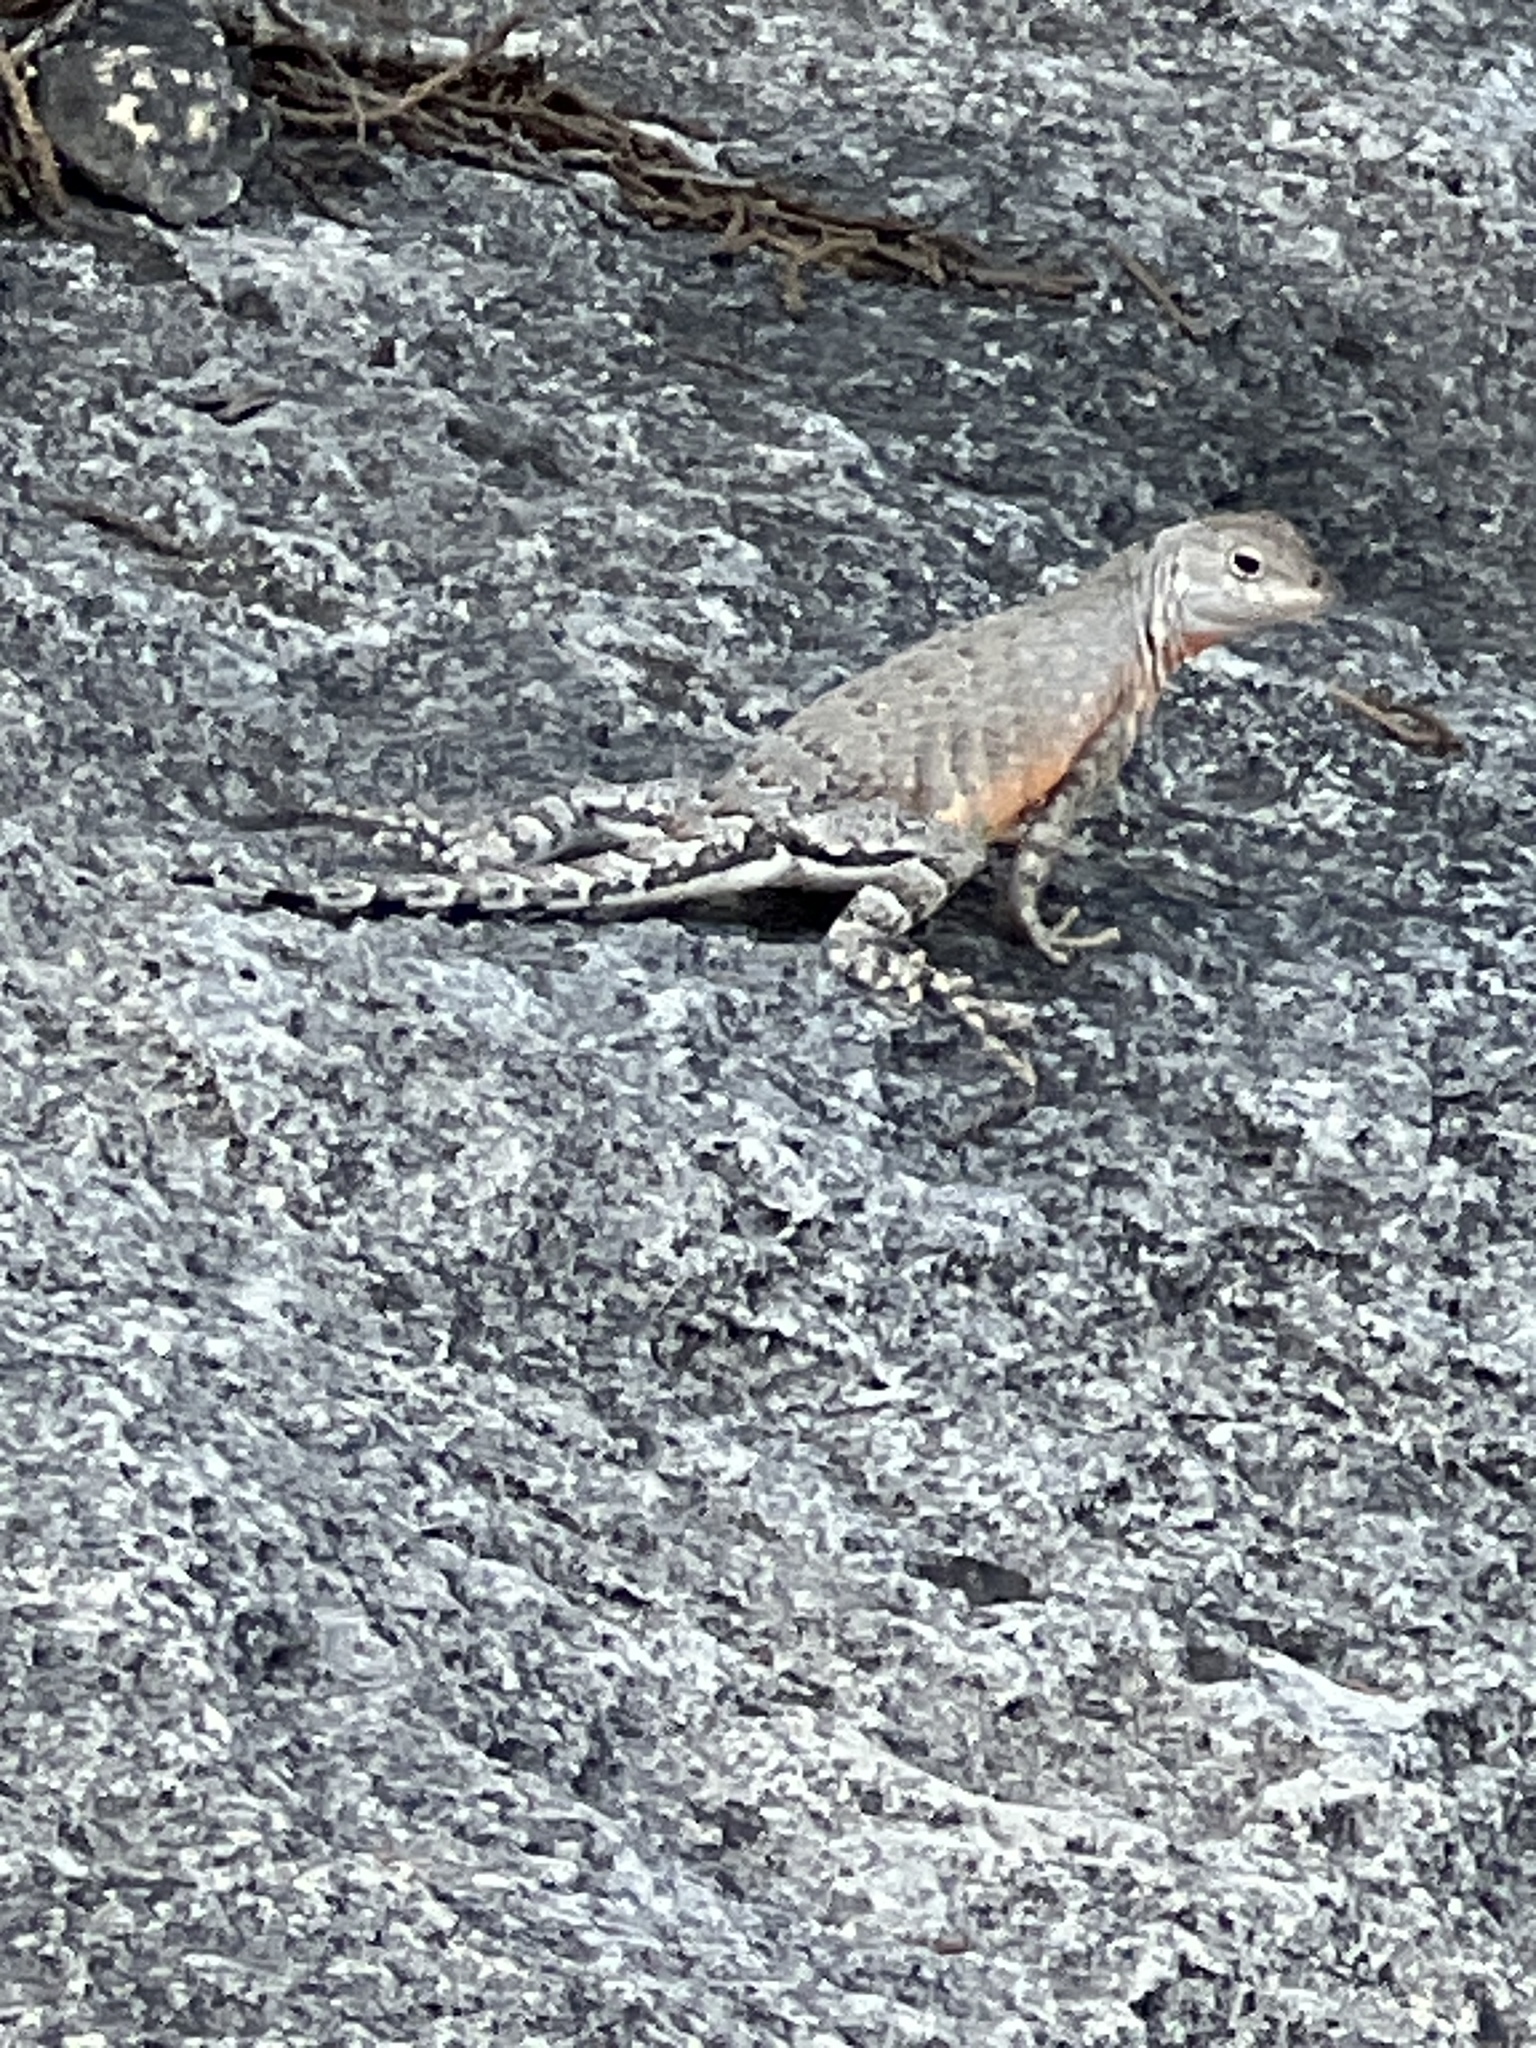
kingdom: Animalia
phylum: Chordata
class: Squamata
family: Phrynosomatidae
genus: Cophosaurus
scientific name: Cophosaurus texanus
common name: Greater earless lizard
